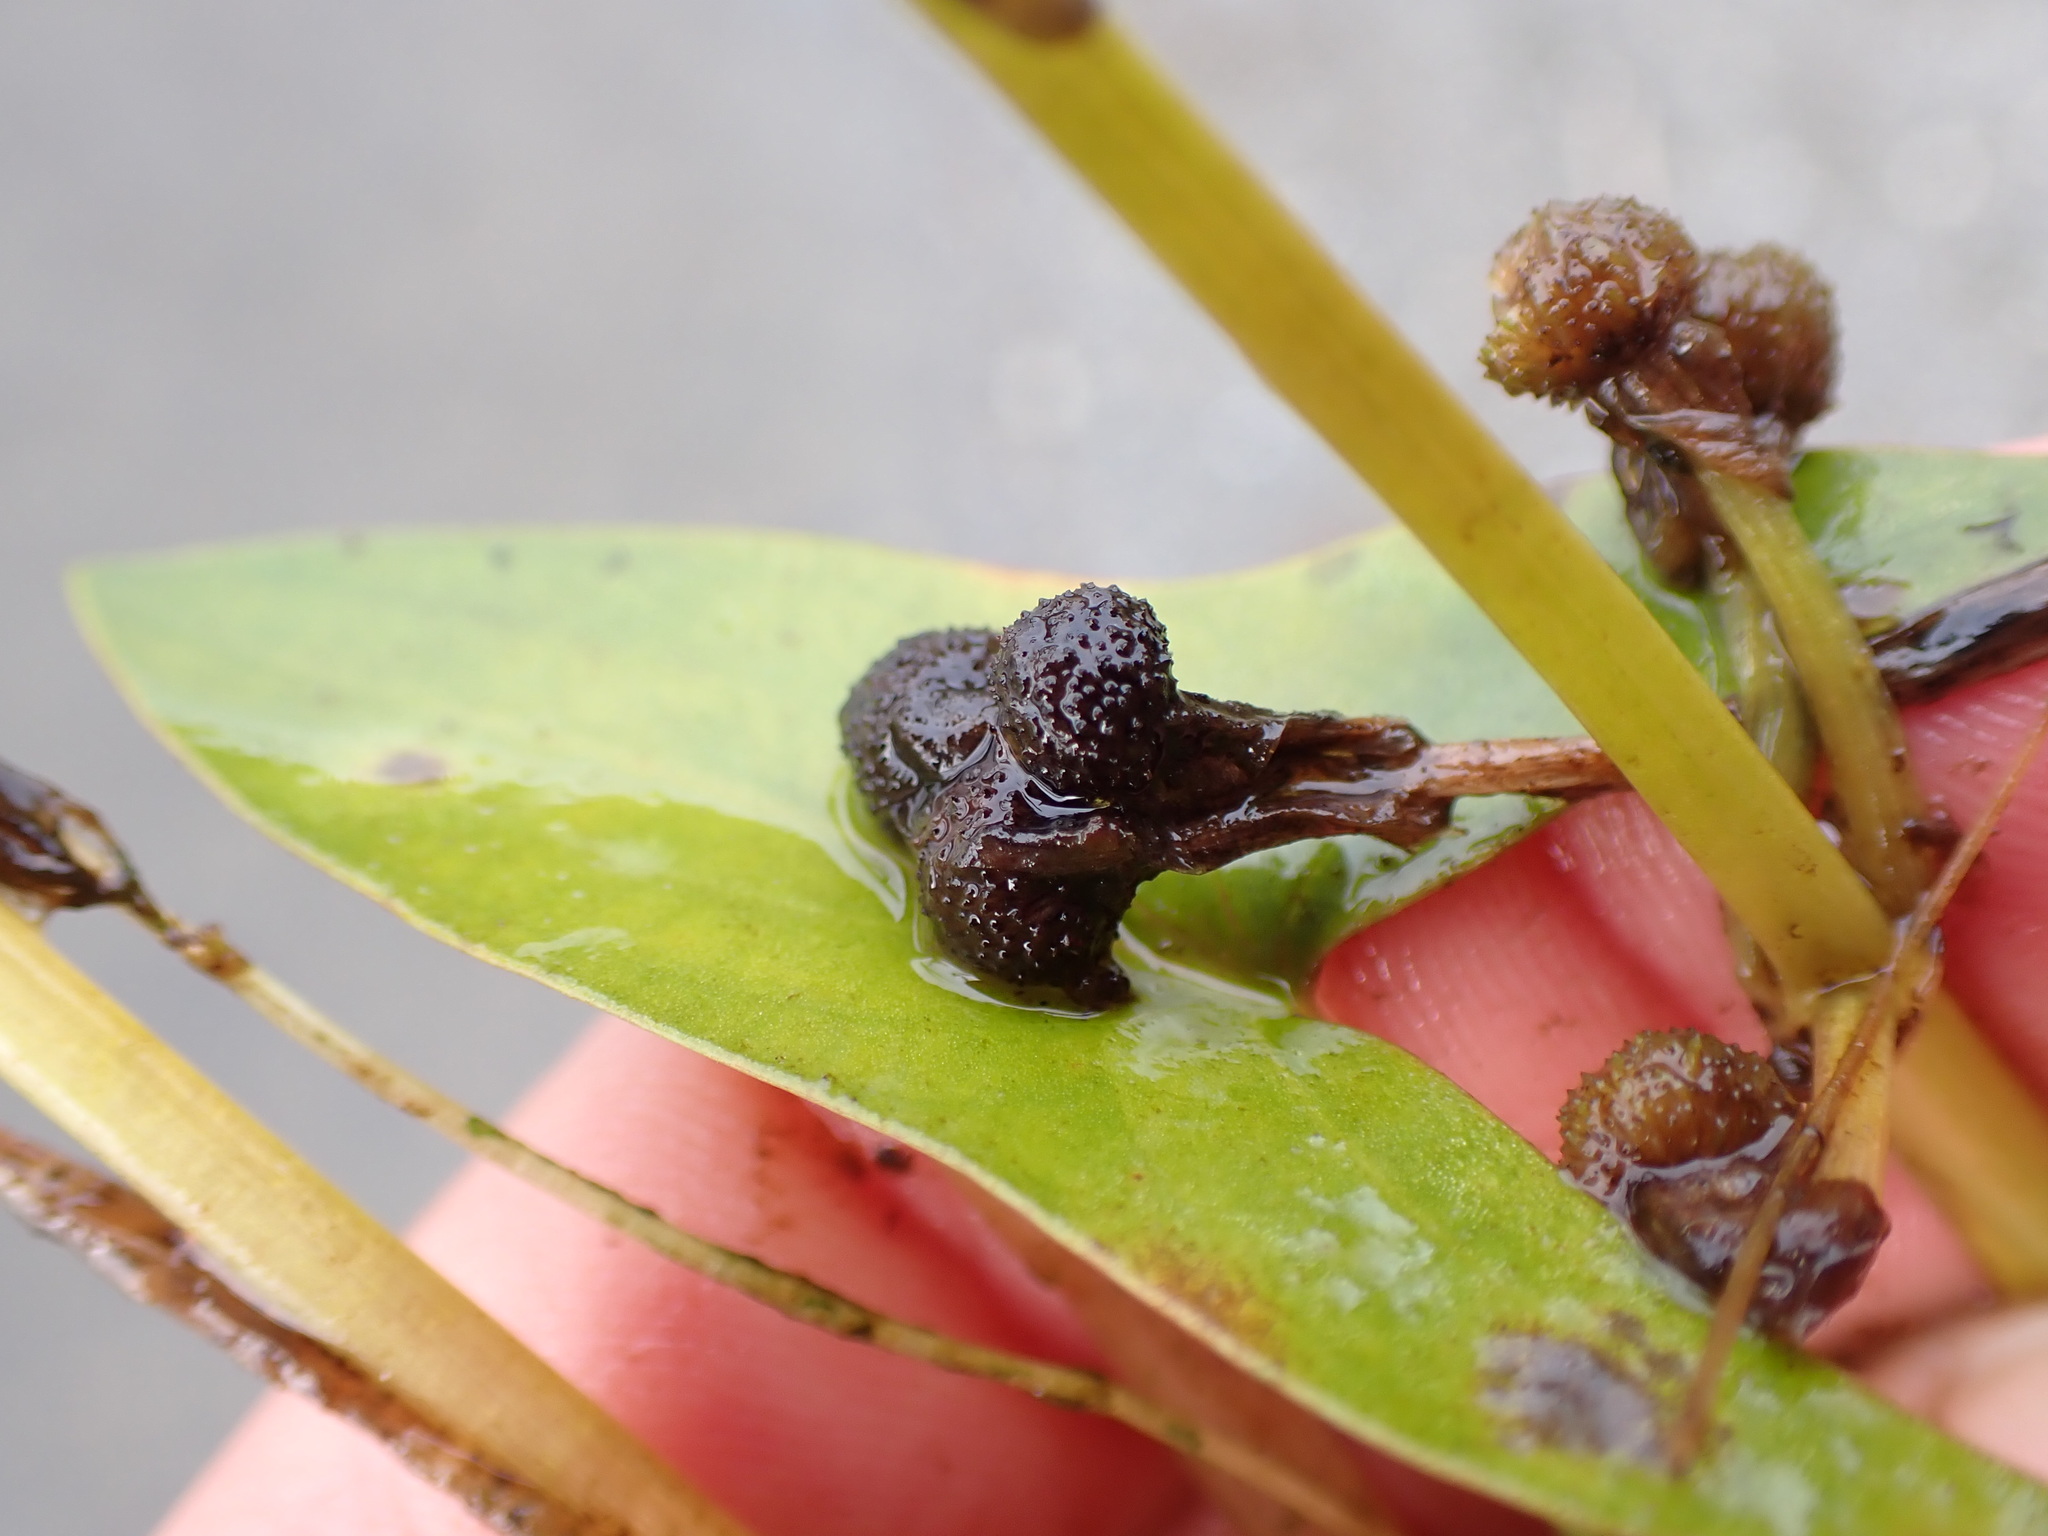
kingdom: Plantae
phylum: Tracheophyta
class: Liliopsida
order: Alismatales
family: Alismataceae
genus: Sagittaria
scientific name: Sagittaria cuneata
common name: Northern arrowhead
